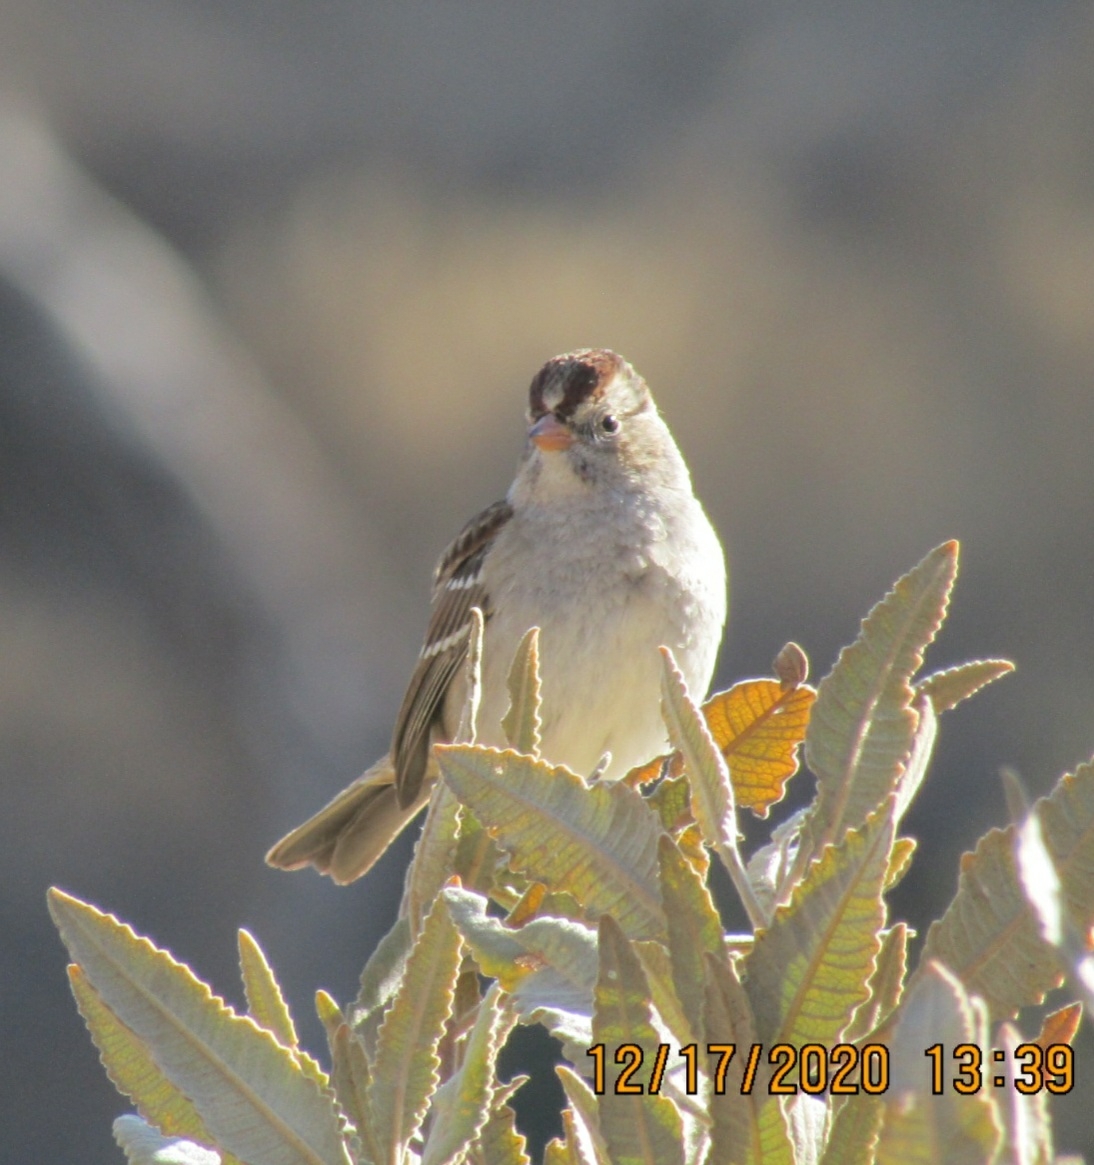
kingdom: Animalia
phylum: Chordata
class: Aves
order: Passeriformes
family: Passerellidae
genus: Zonotrichia
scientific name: Zonotrichia leucophrys
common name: White-crowned sparrow
